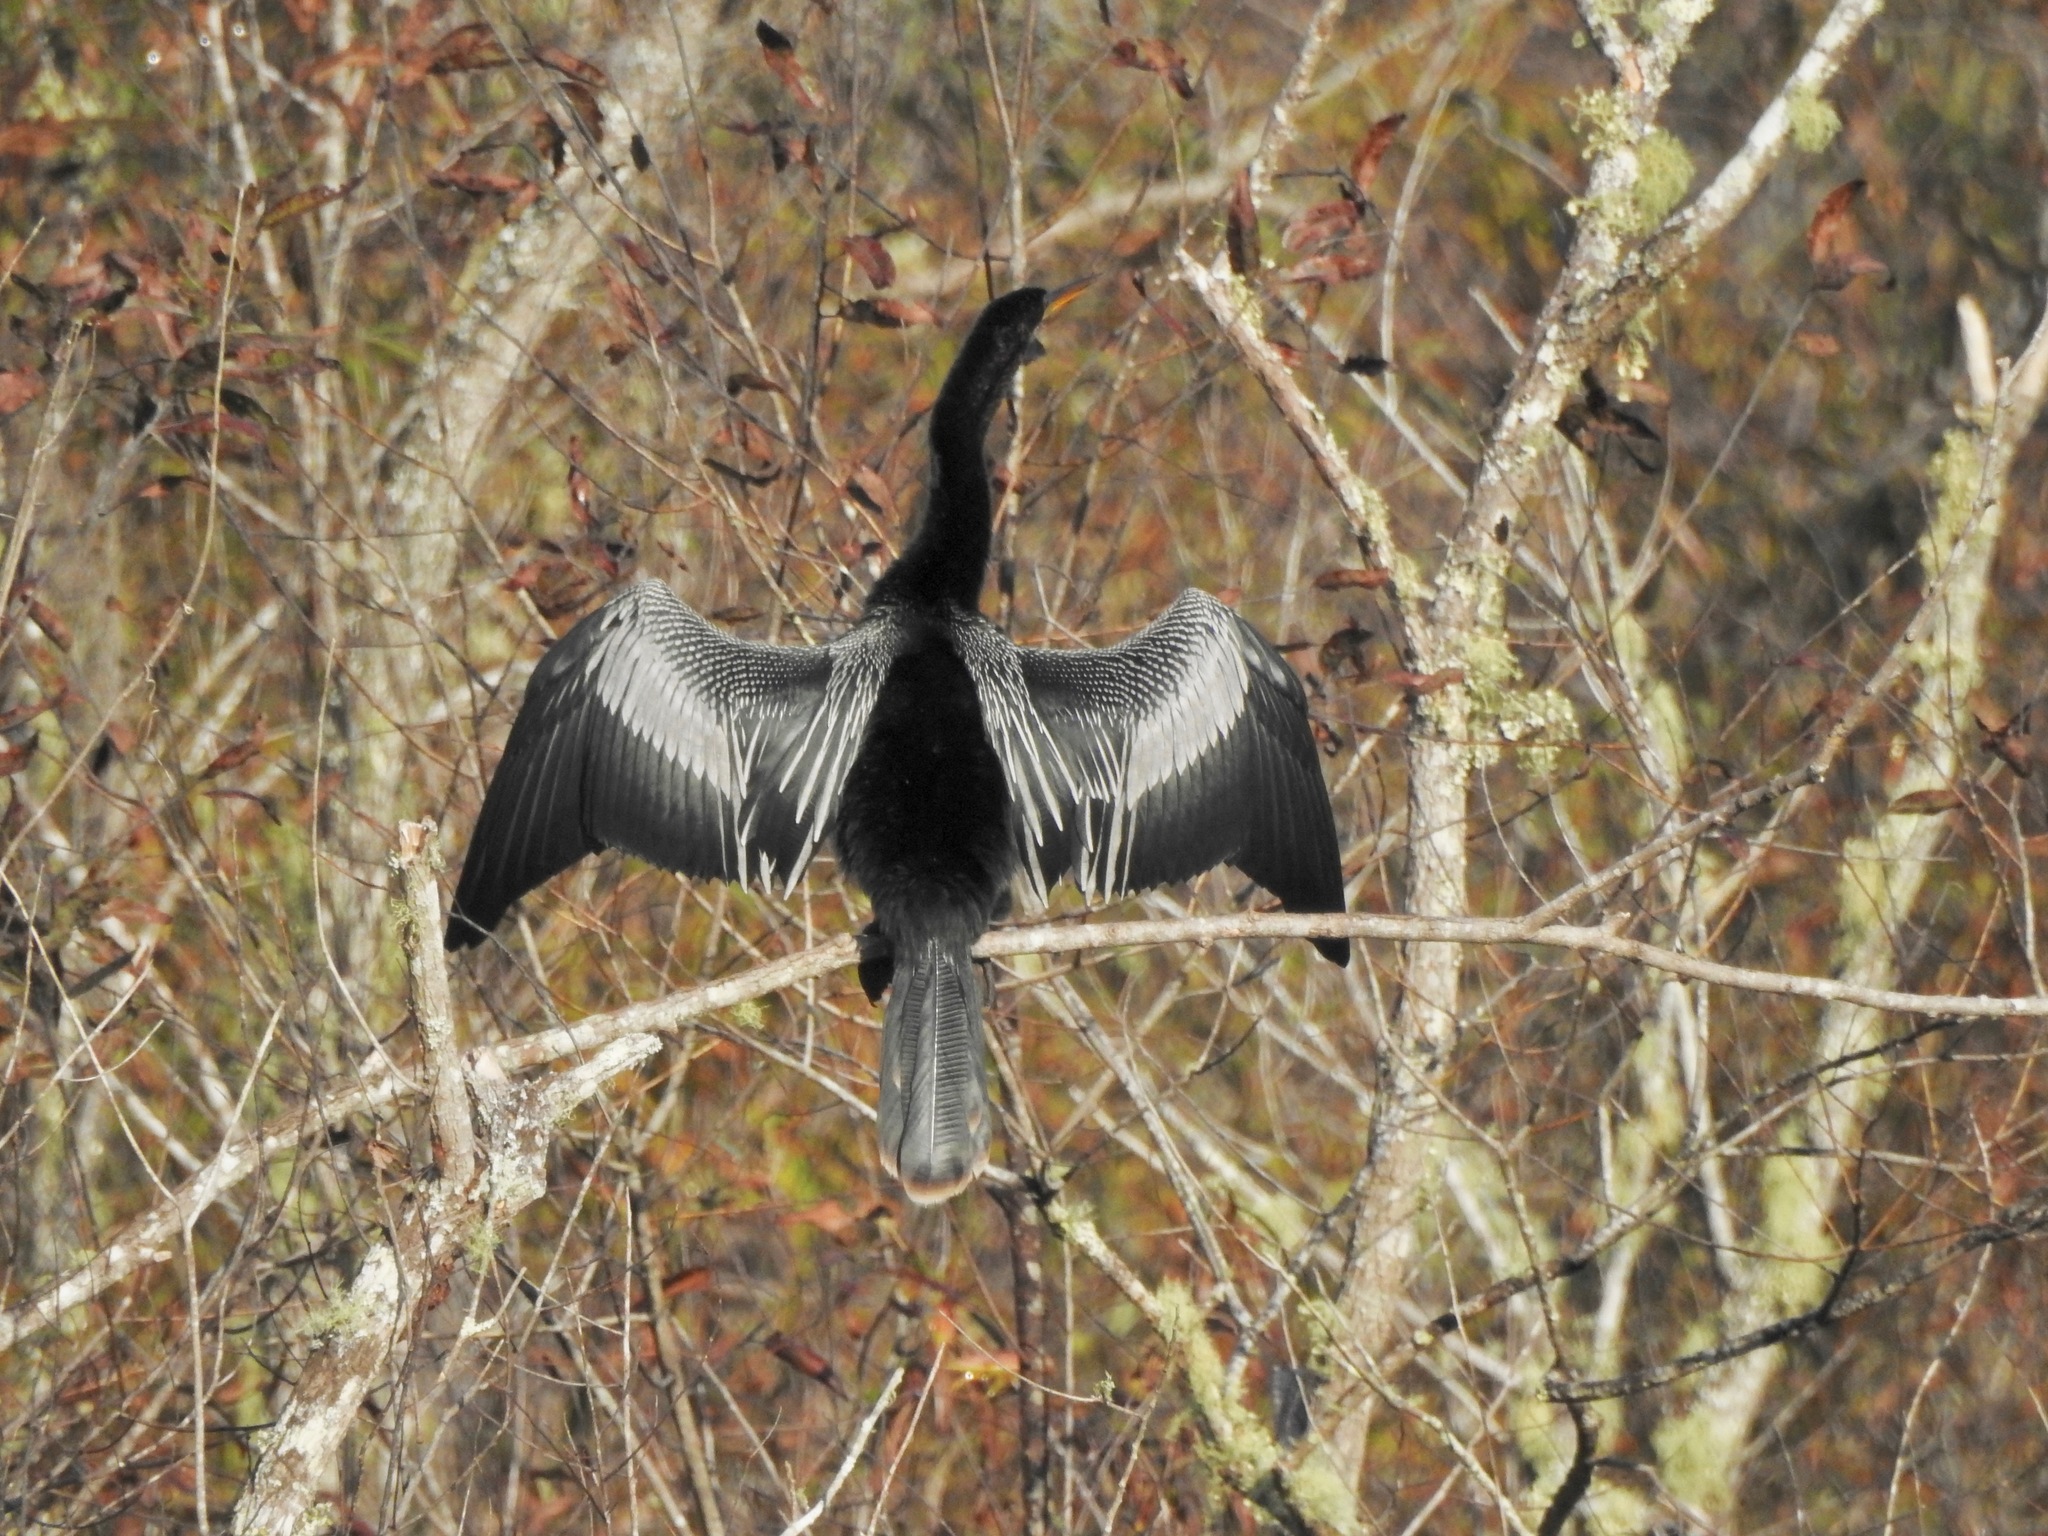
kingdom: Animalia
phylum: Chordata
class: Aves
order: Suliformes
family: Anhingidae
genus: Anhinga
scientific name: Anhinga anhinga
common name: Anhinga
